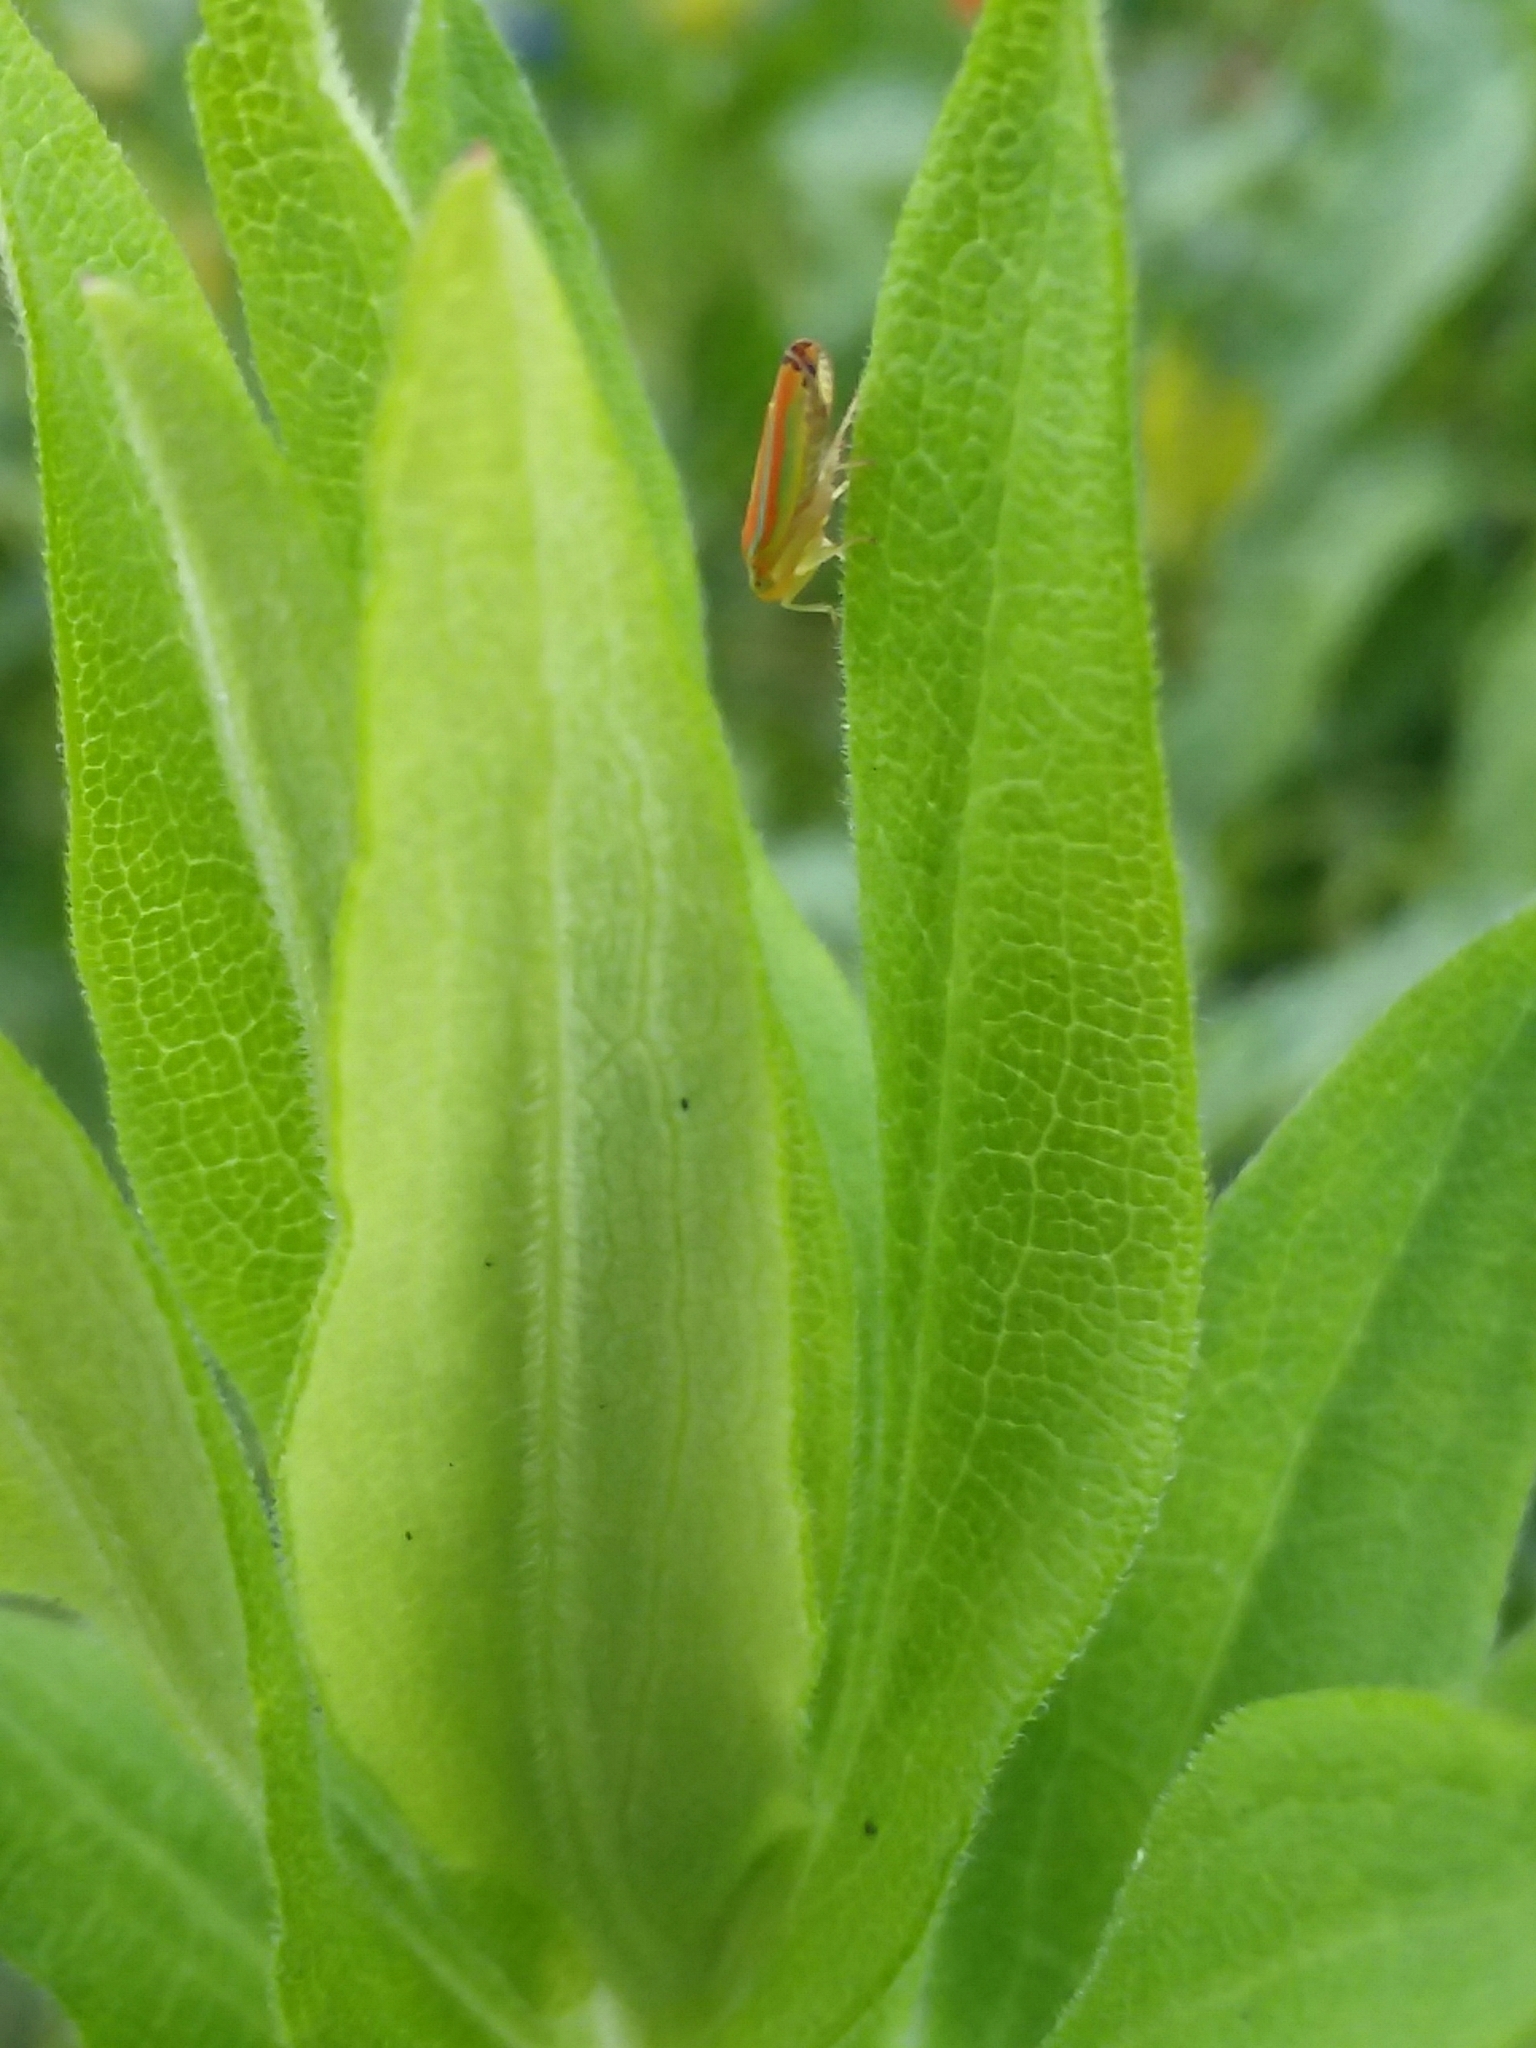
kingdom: Animalia
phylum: Arthropoda
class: Insecta
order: Hemiptera
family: Cicadellidae
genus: Graphocephala
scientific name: Graphocephala coccinea
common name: Candy-striped leafhopper
